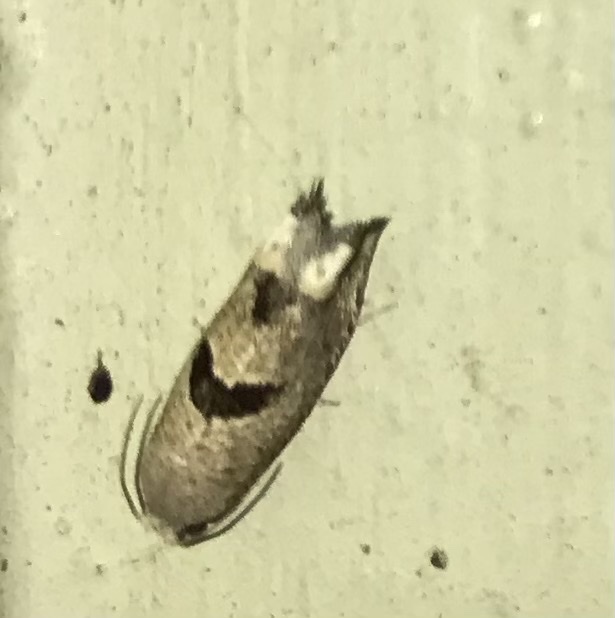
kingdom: Animalia
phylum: Arthropoda
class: Insecta
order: Lepidoptera
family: Tortricidae
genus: Suleima
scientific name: Suleima helianthana
